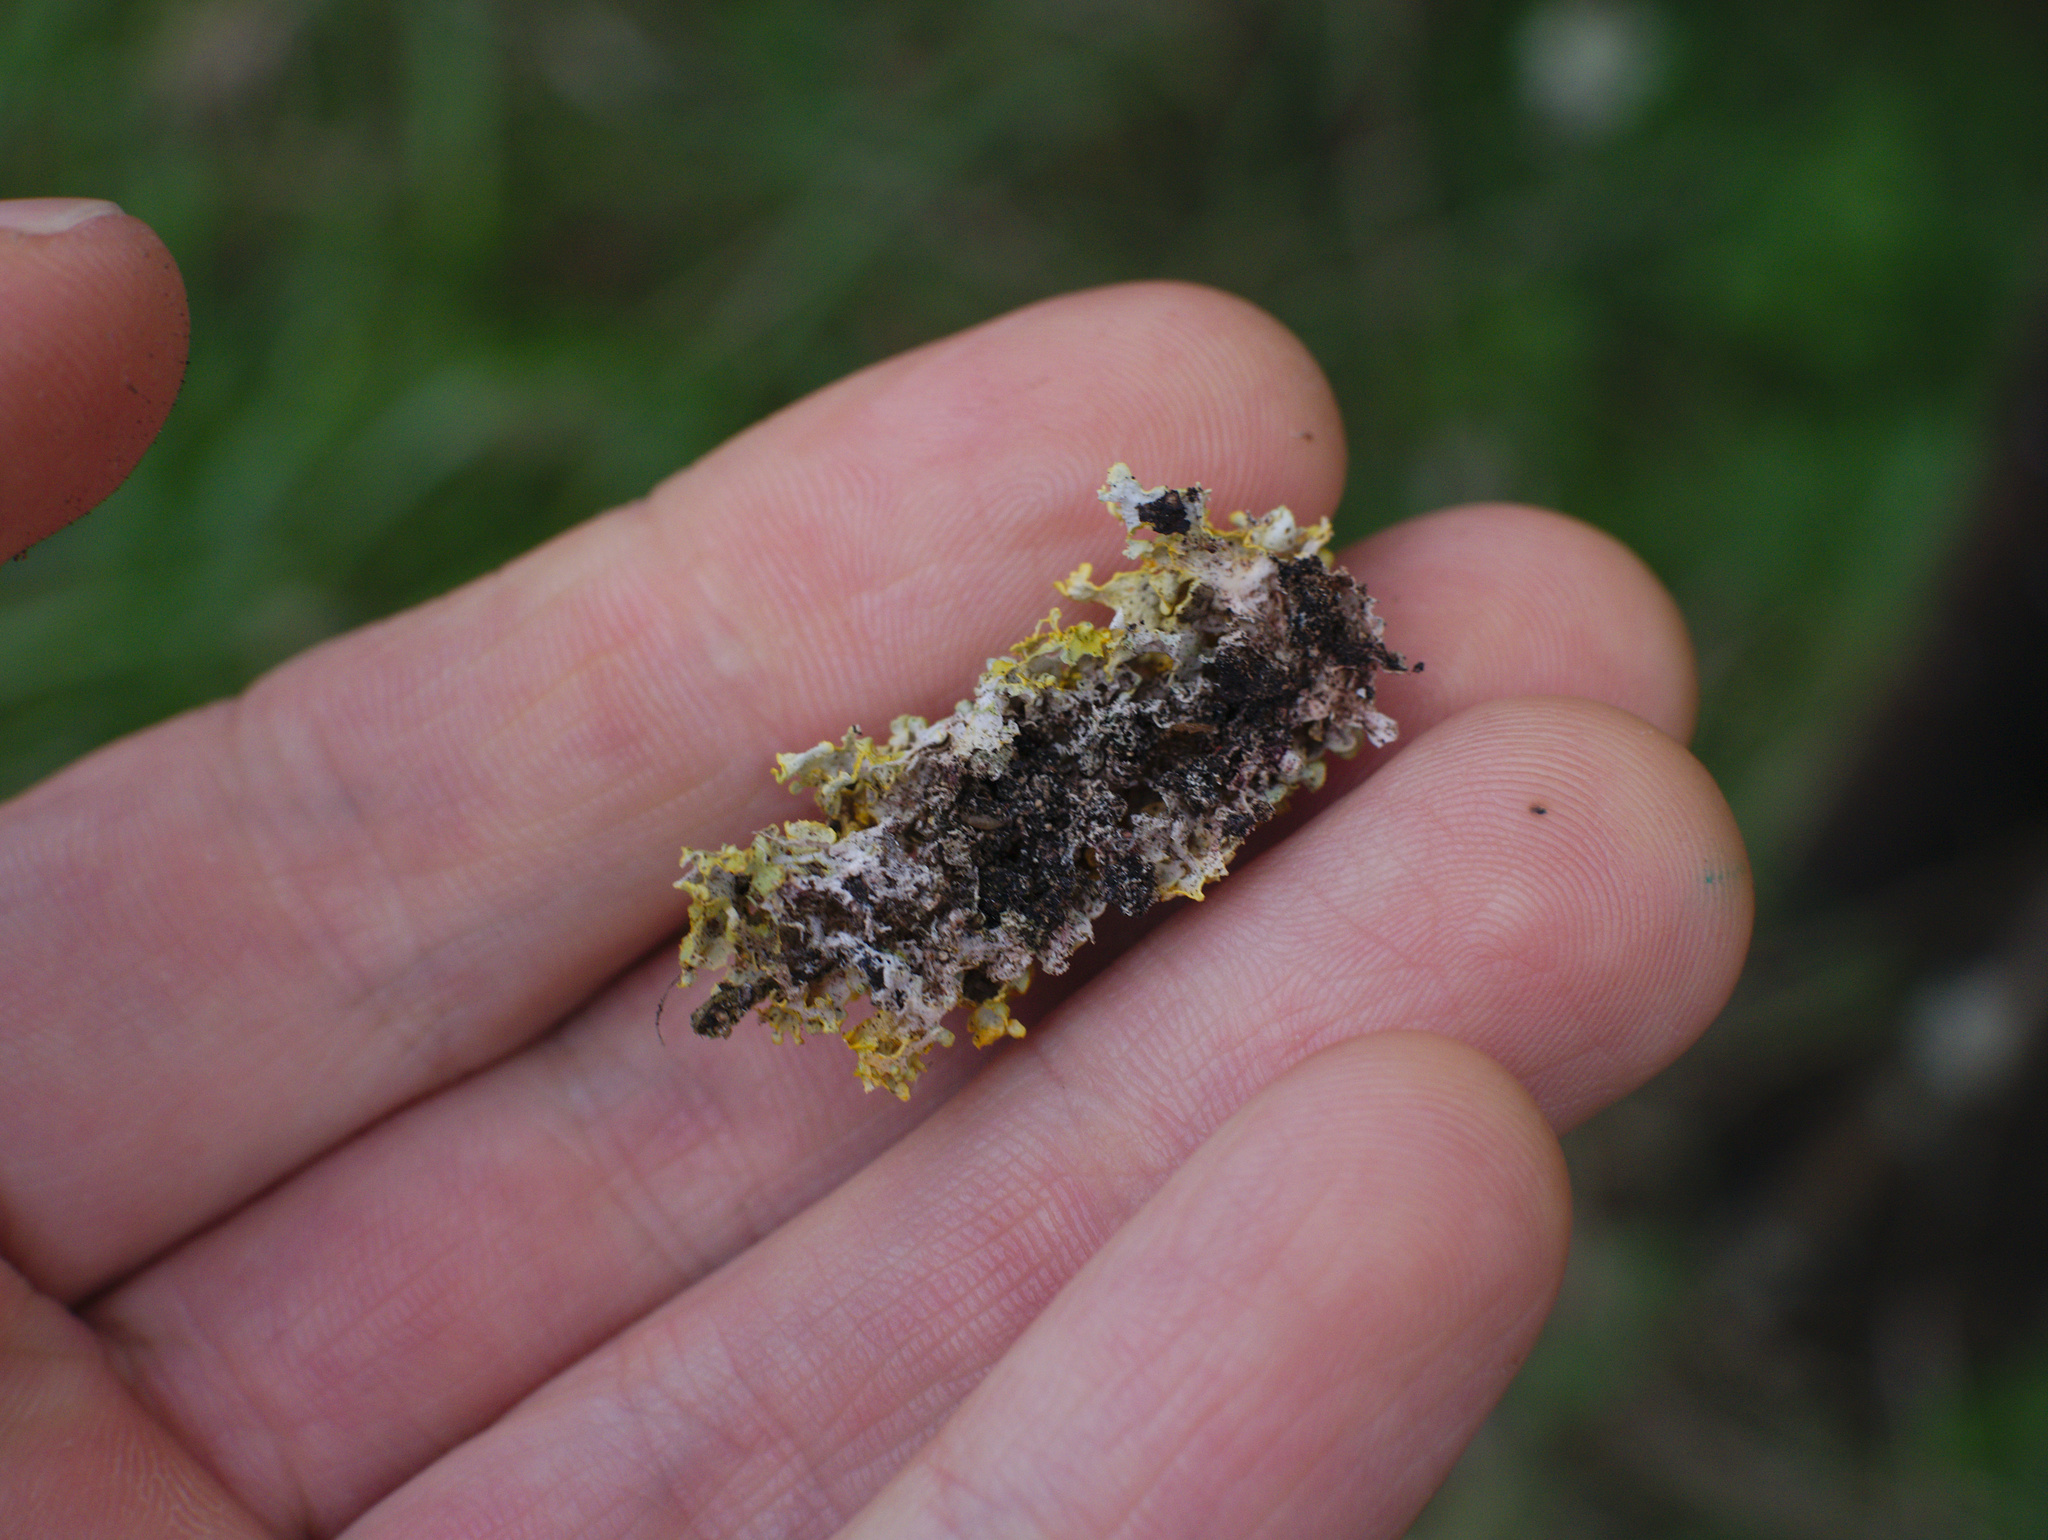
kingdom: Fungi
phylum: Ascomycota
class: Lecanoromycetes
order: Teloschistales
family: Teloschistaceae
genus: Xanthoria
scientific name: Xanthoria parietina
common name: Common orange lichen
